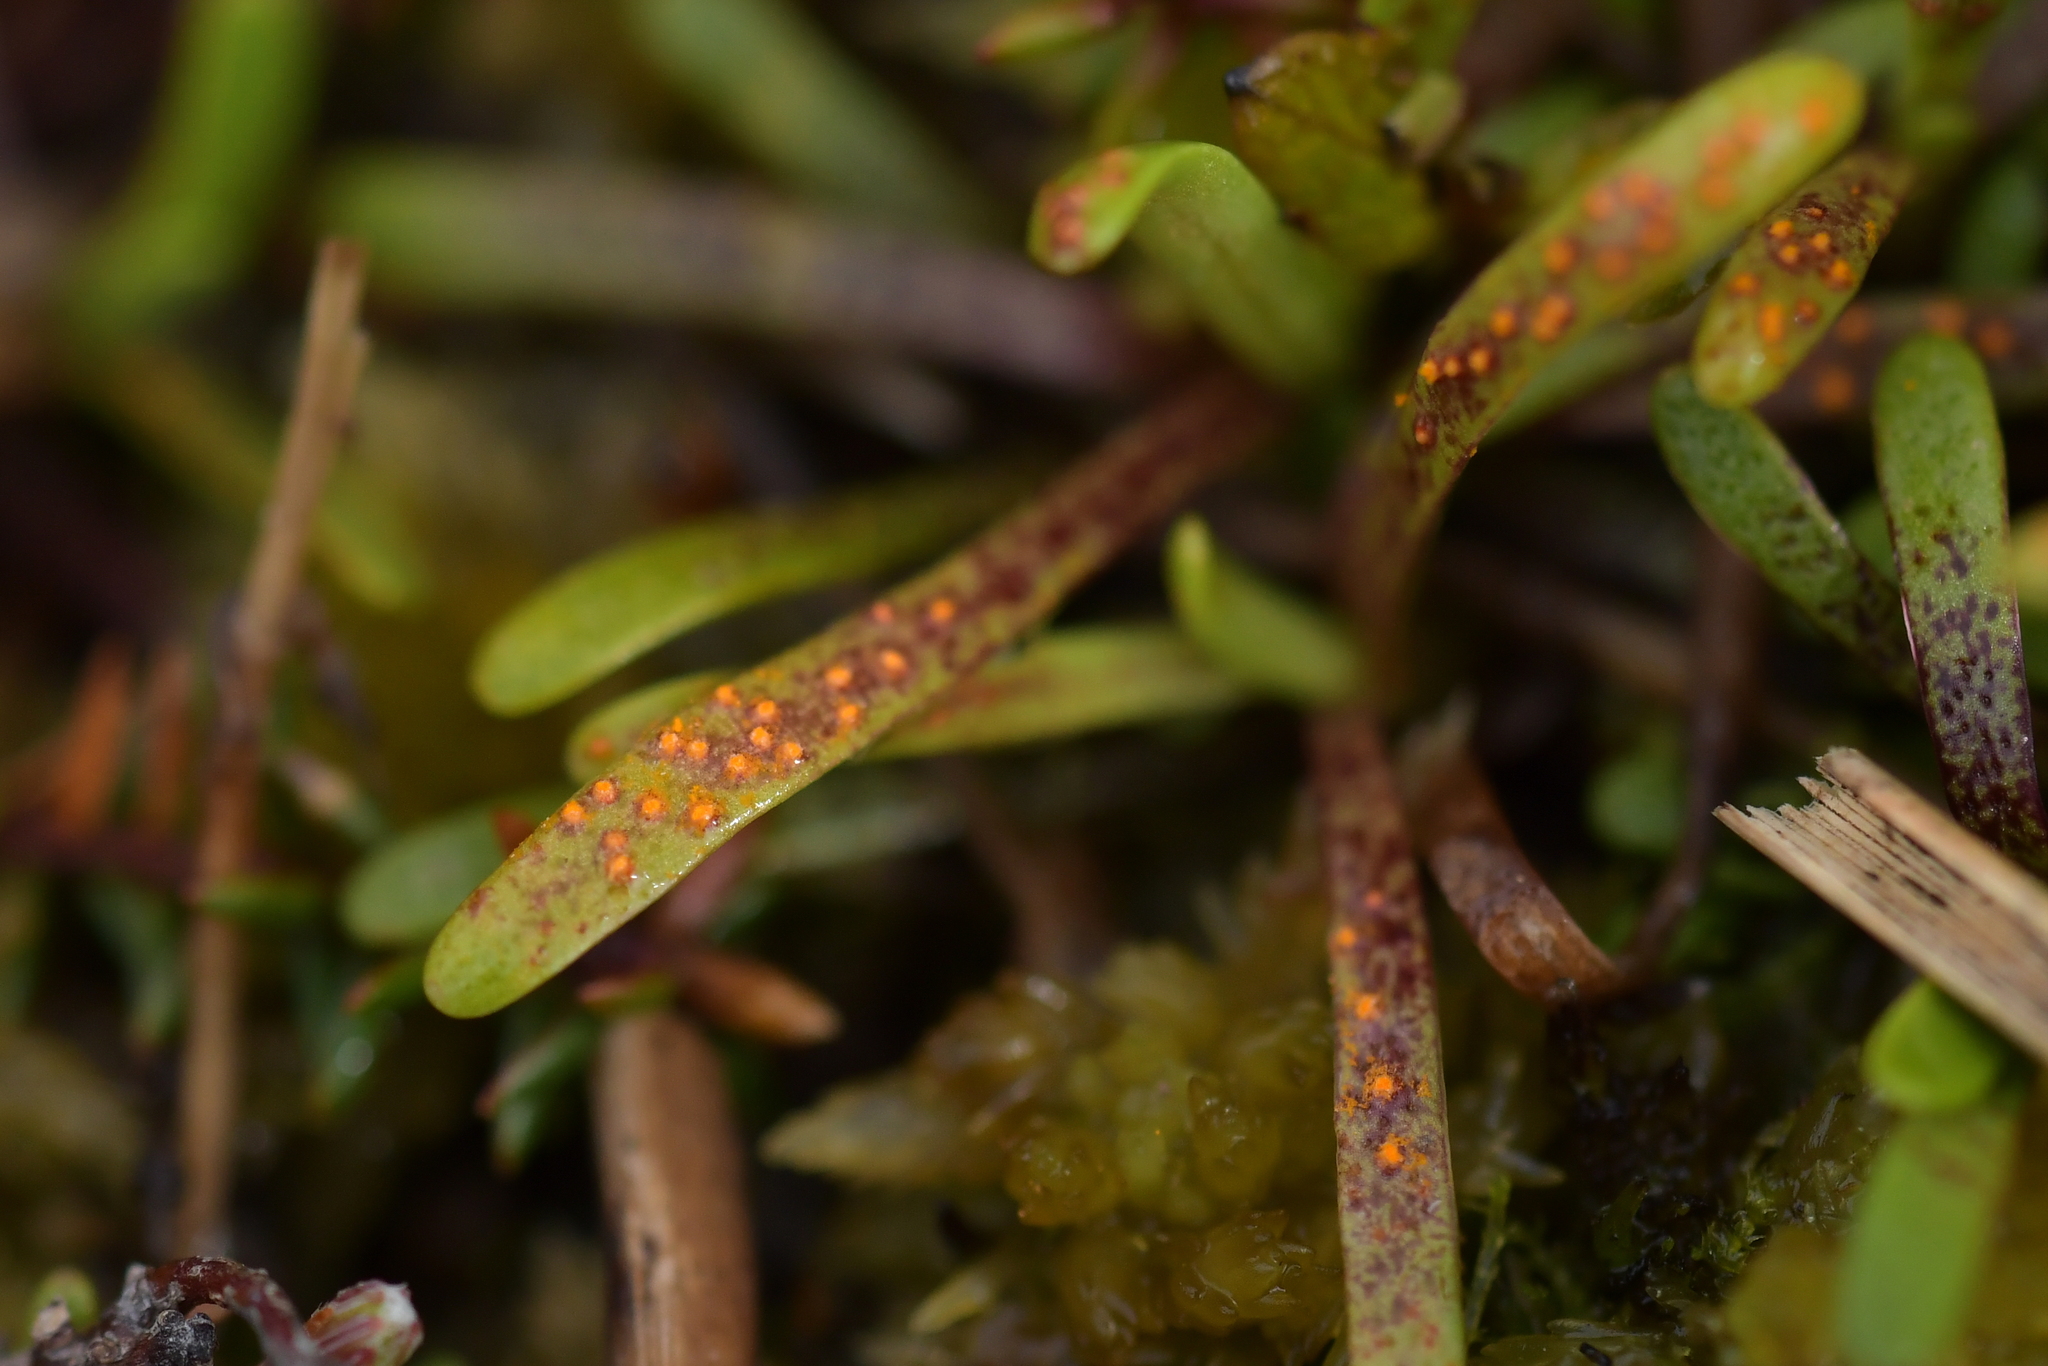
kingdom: Fungi
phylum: Basidiomycota
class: Pucciniomycetes
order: Pucciniales
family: Pucciniaceae
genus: Aecidium
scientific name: Aecidium monocystis
